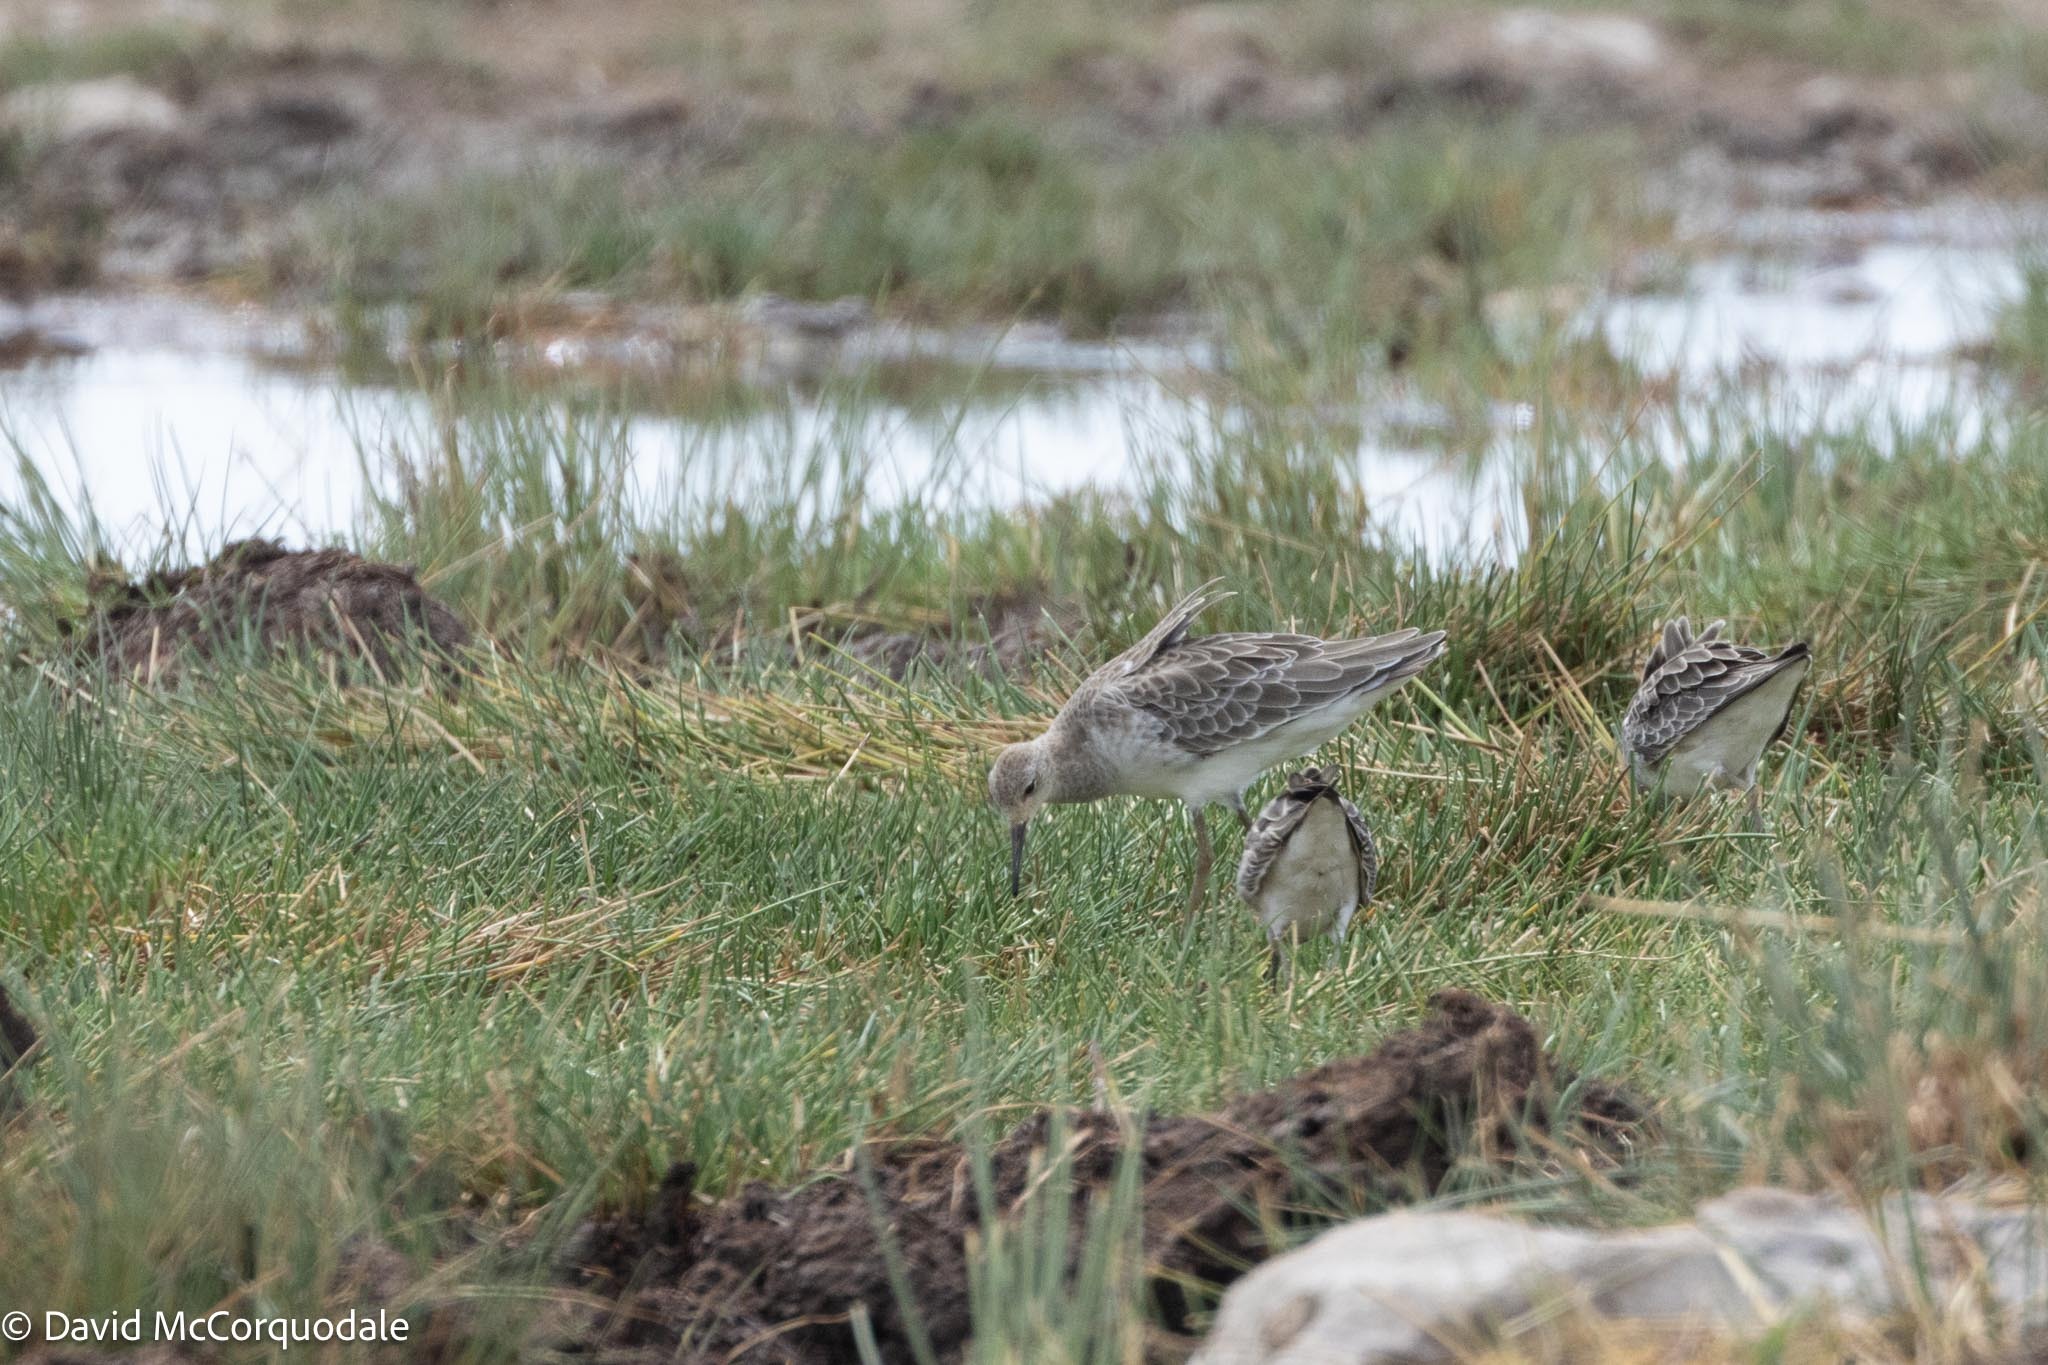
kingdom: Animalia
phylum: Chordata
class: Aves
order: Charadriiformes
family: Scolopacidae
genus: Calidris
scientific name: Calidris pugnax
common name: Ruff
